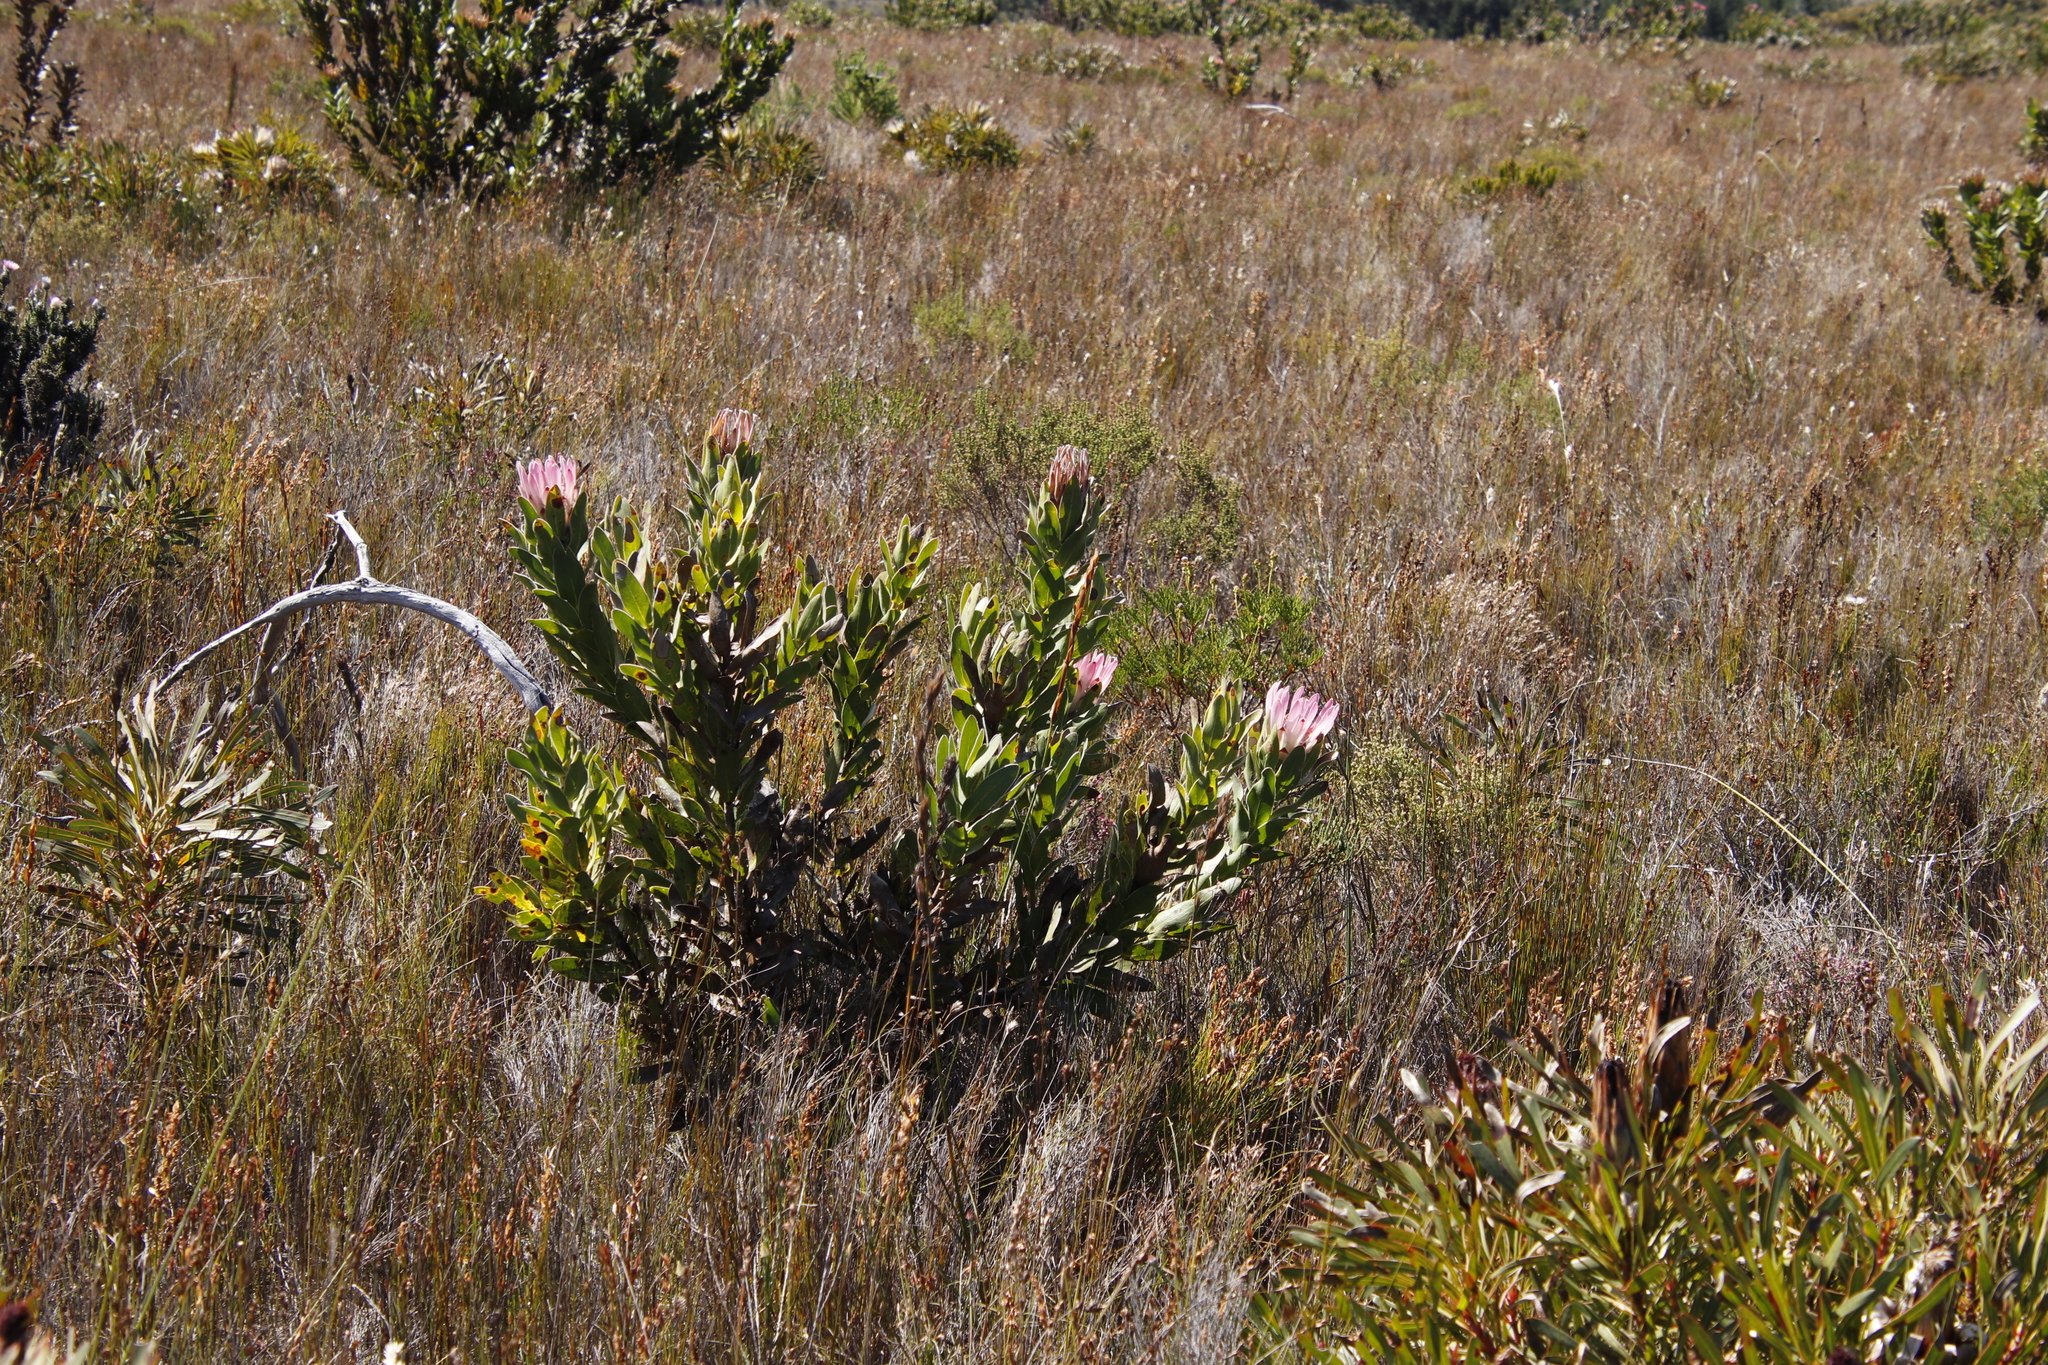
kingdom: Plantae
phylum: Tracheophyta
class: Magnoliopsida
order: Proteales
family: Proteaceae
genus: Protea
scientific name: Protea compacta
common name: Bot river protea
